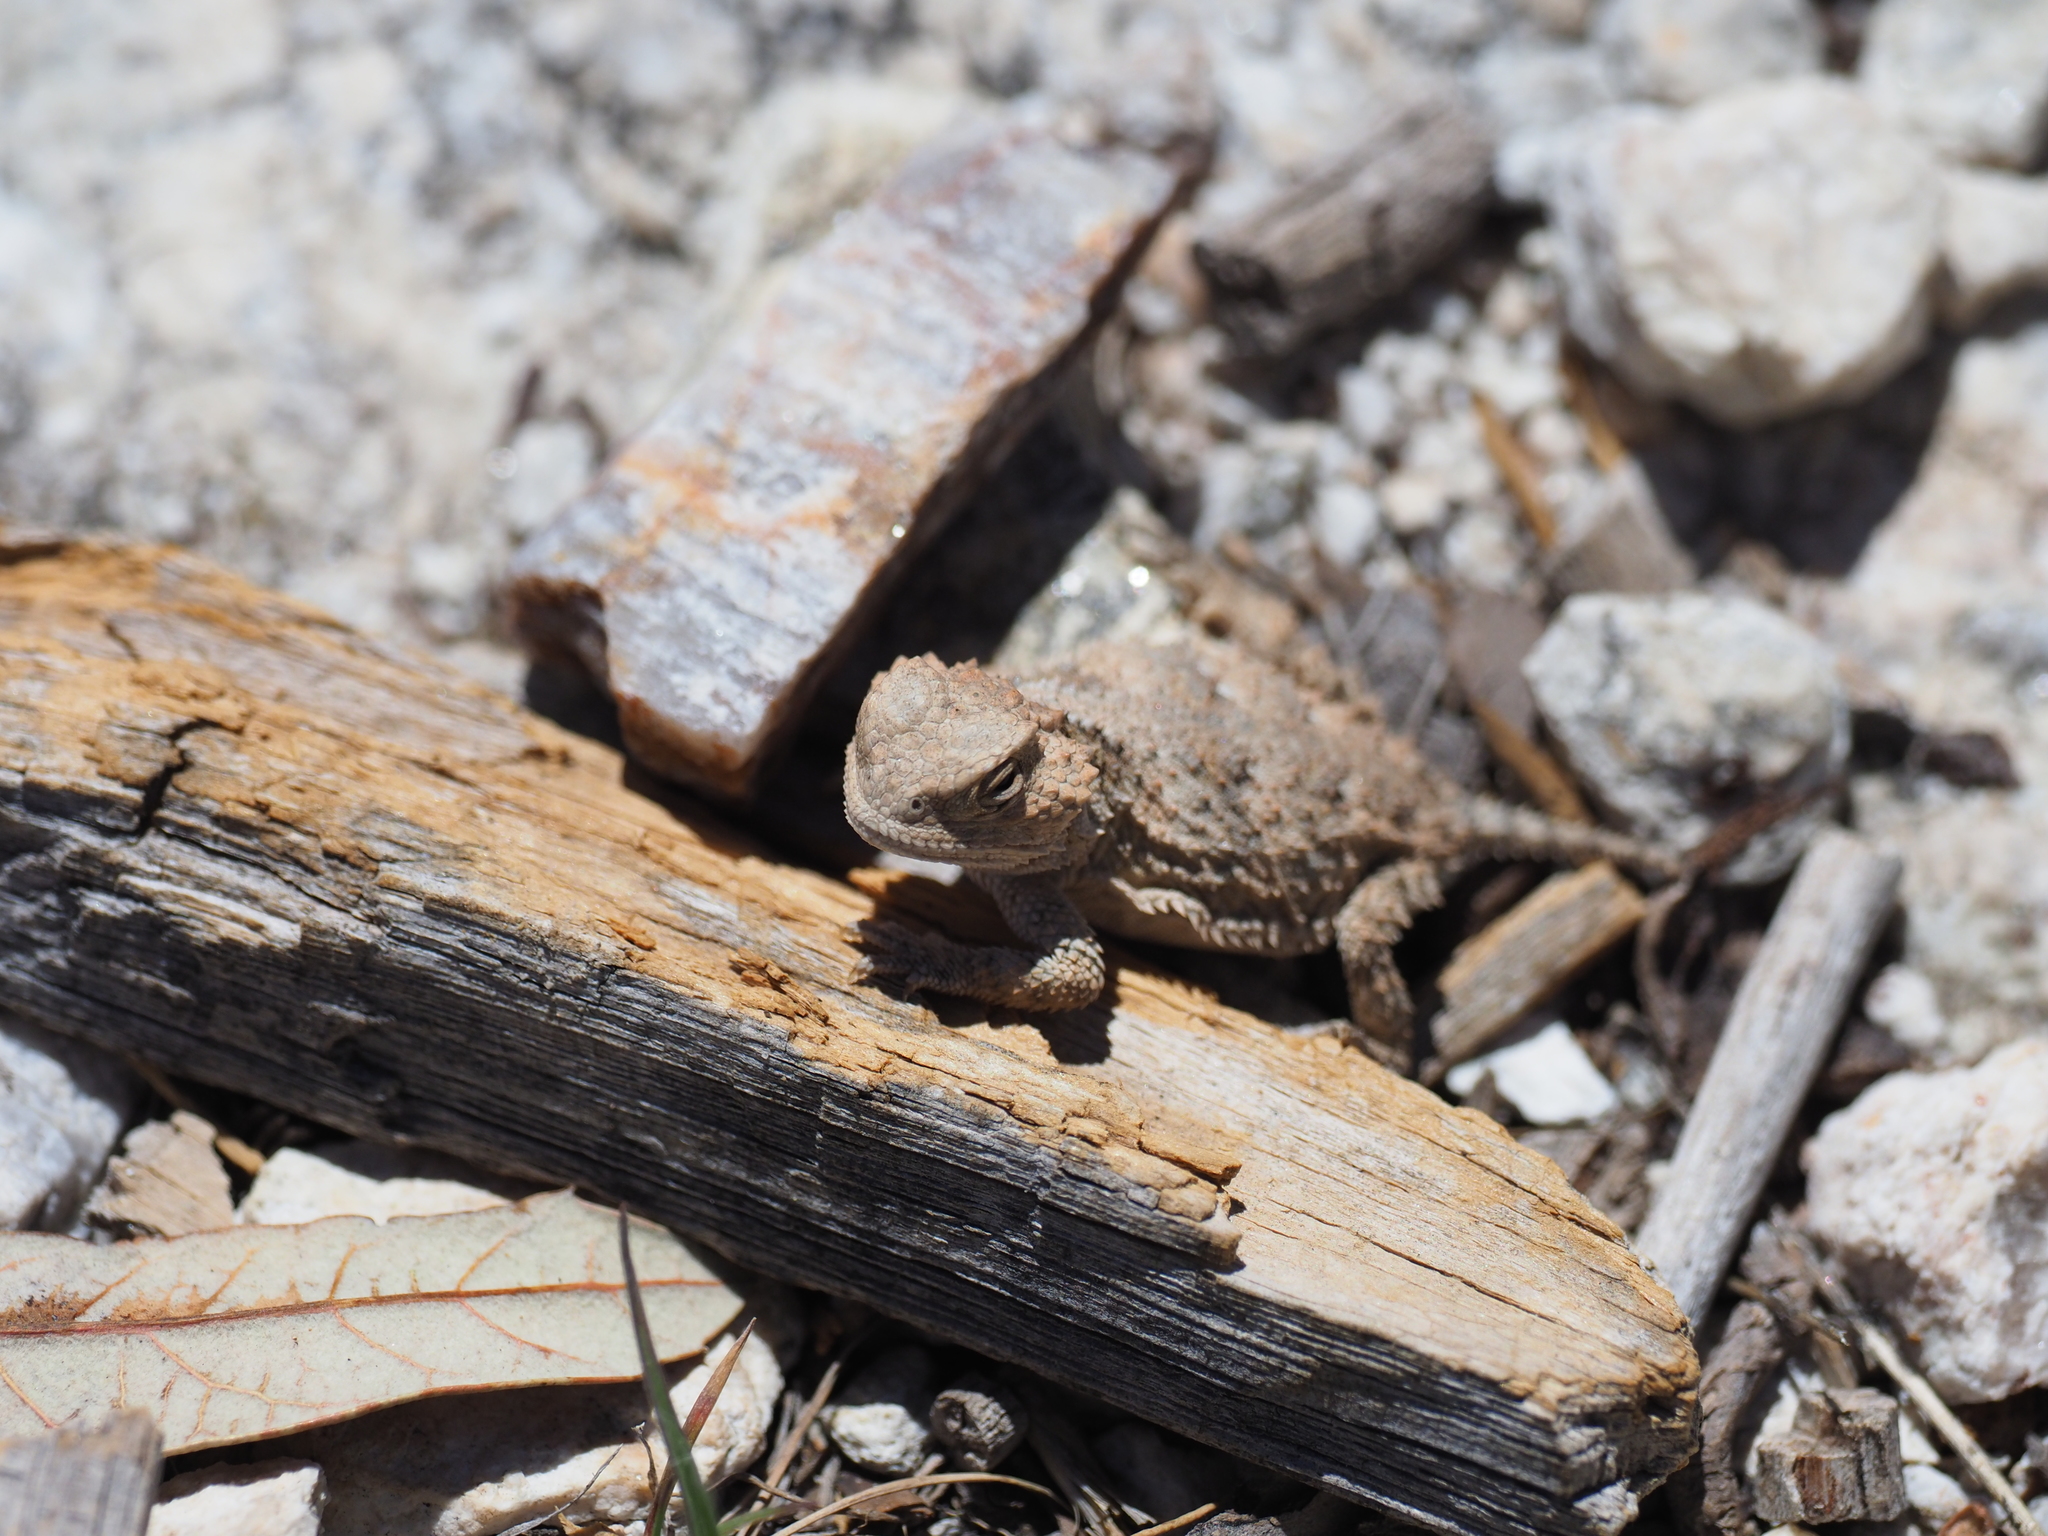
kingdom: Animalia
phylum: Chordata
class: Squamata
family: Phrynosomatidae
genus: Phrynosoma
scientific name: Phrynosoma hernandesi
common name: Greater short-horned lizard
